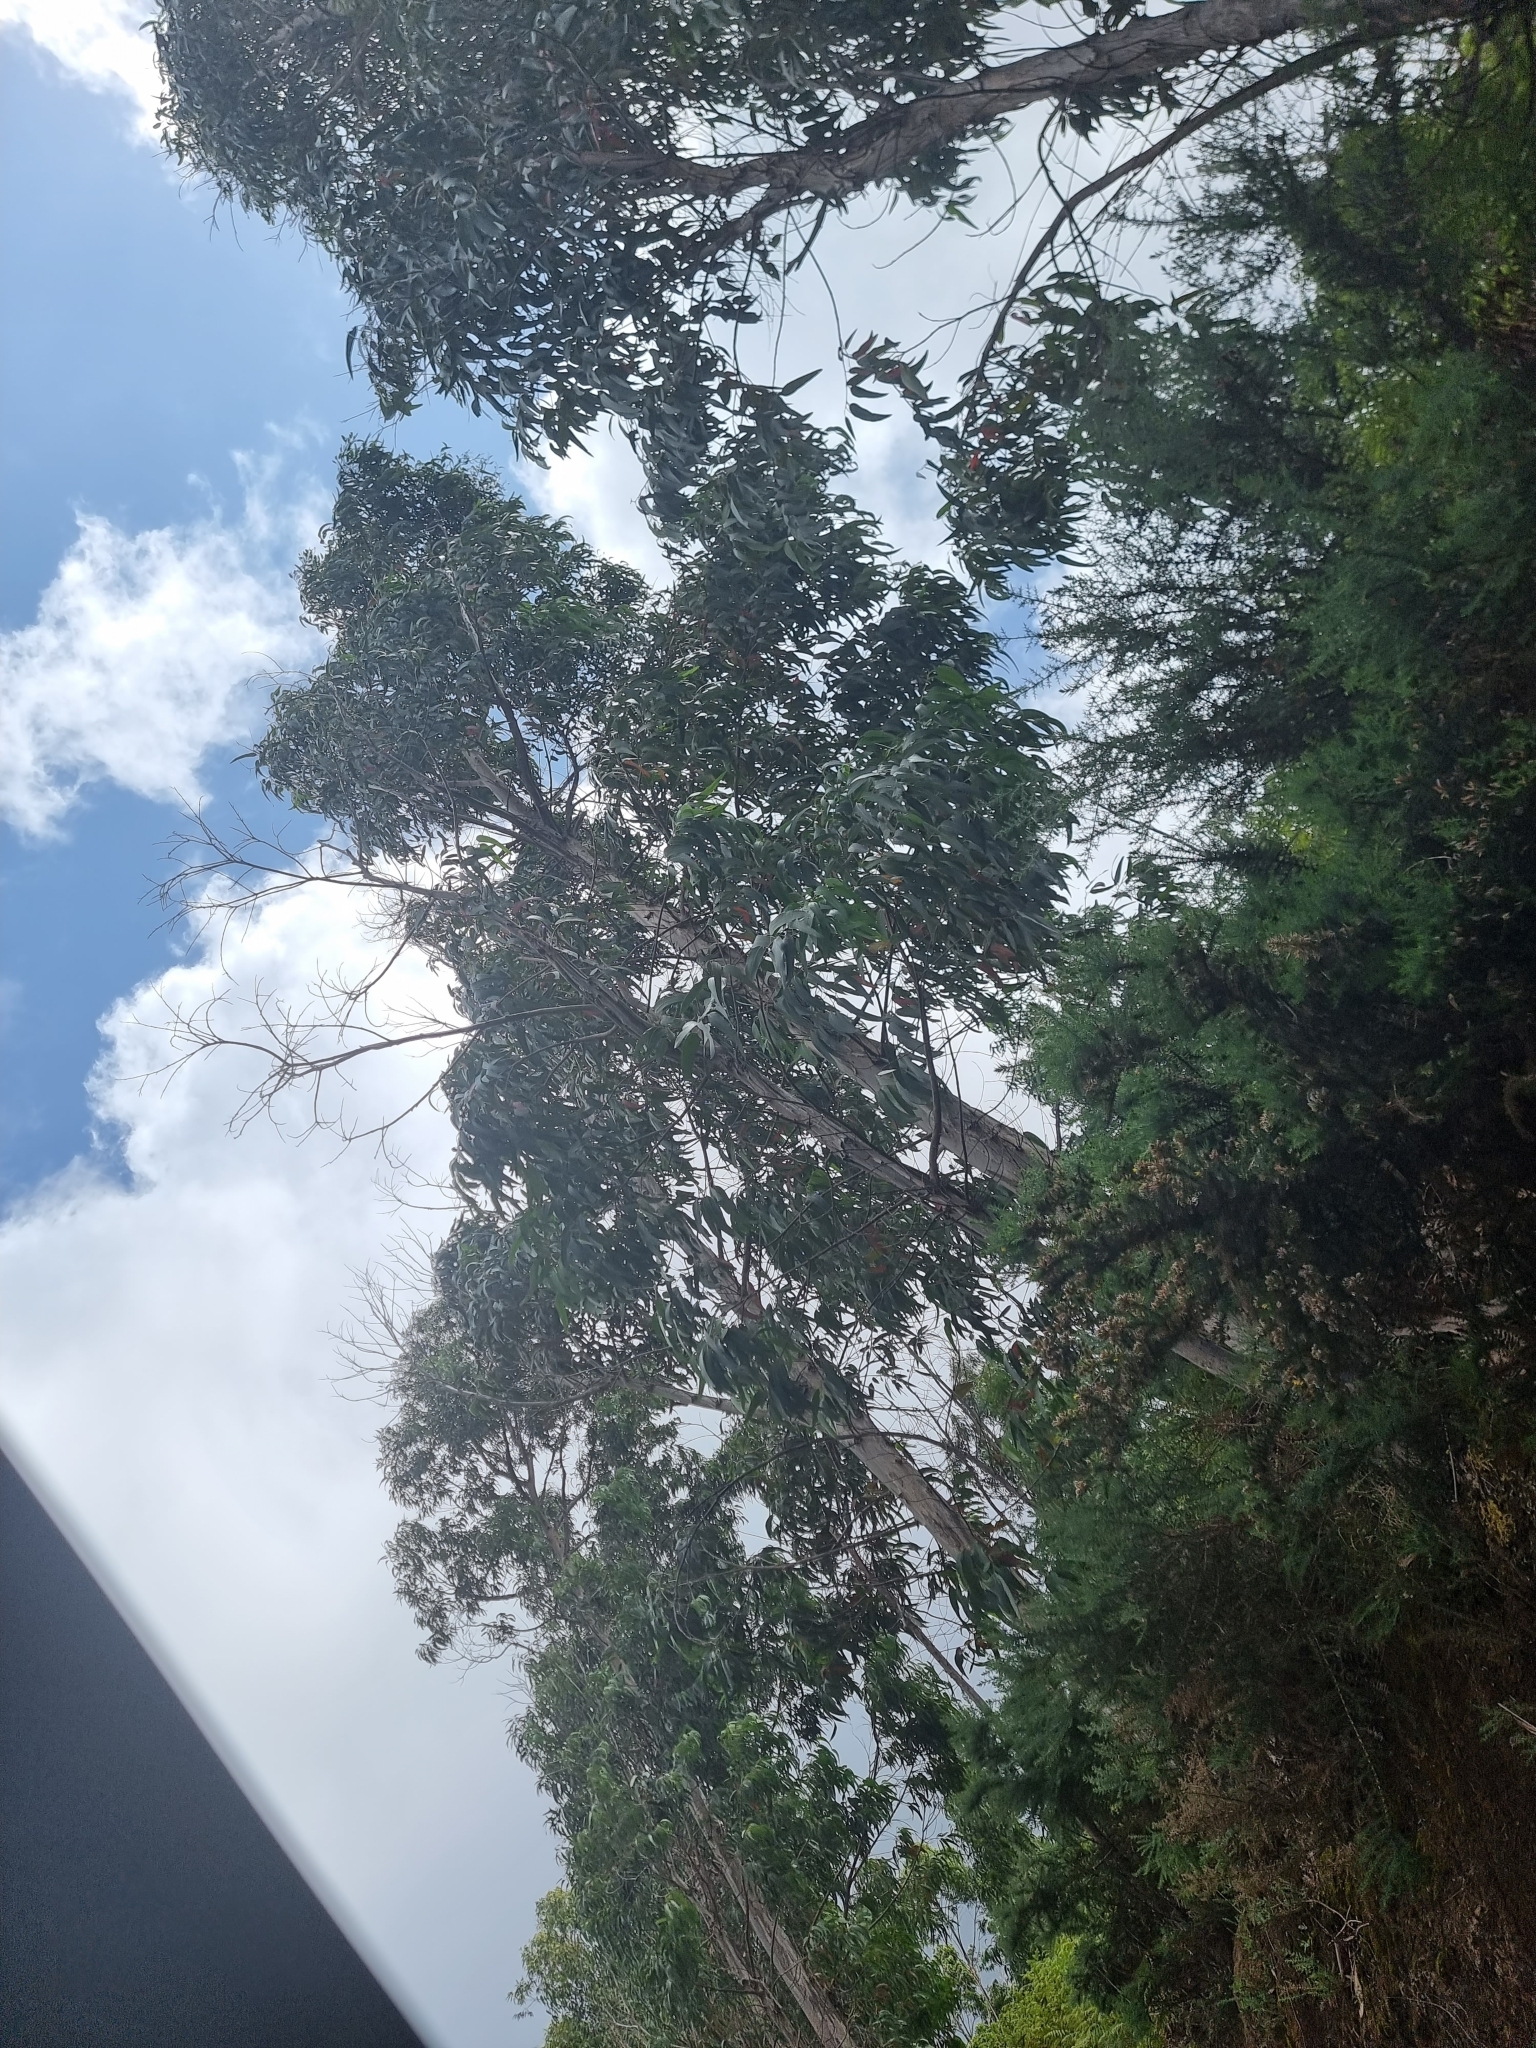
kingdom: Plantae
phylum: Tracheophyta
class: Magnoliopsida
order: Myrtales
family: Myrtaceae
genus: Eucalyptus
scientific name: Eucalyptus globulus
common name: Southern blue-gum
